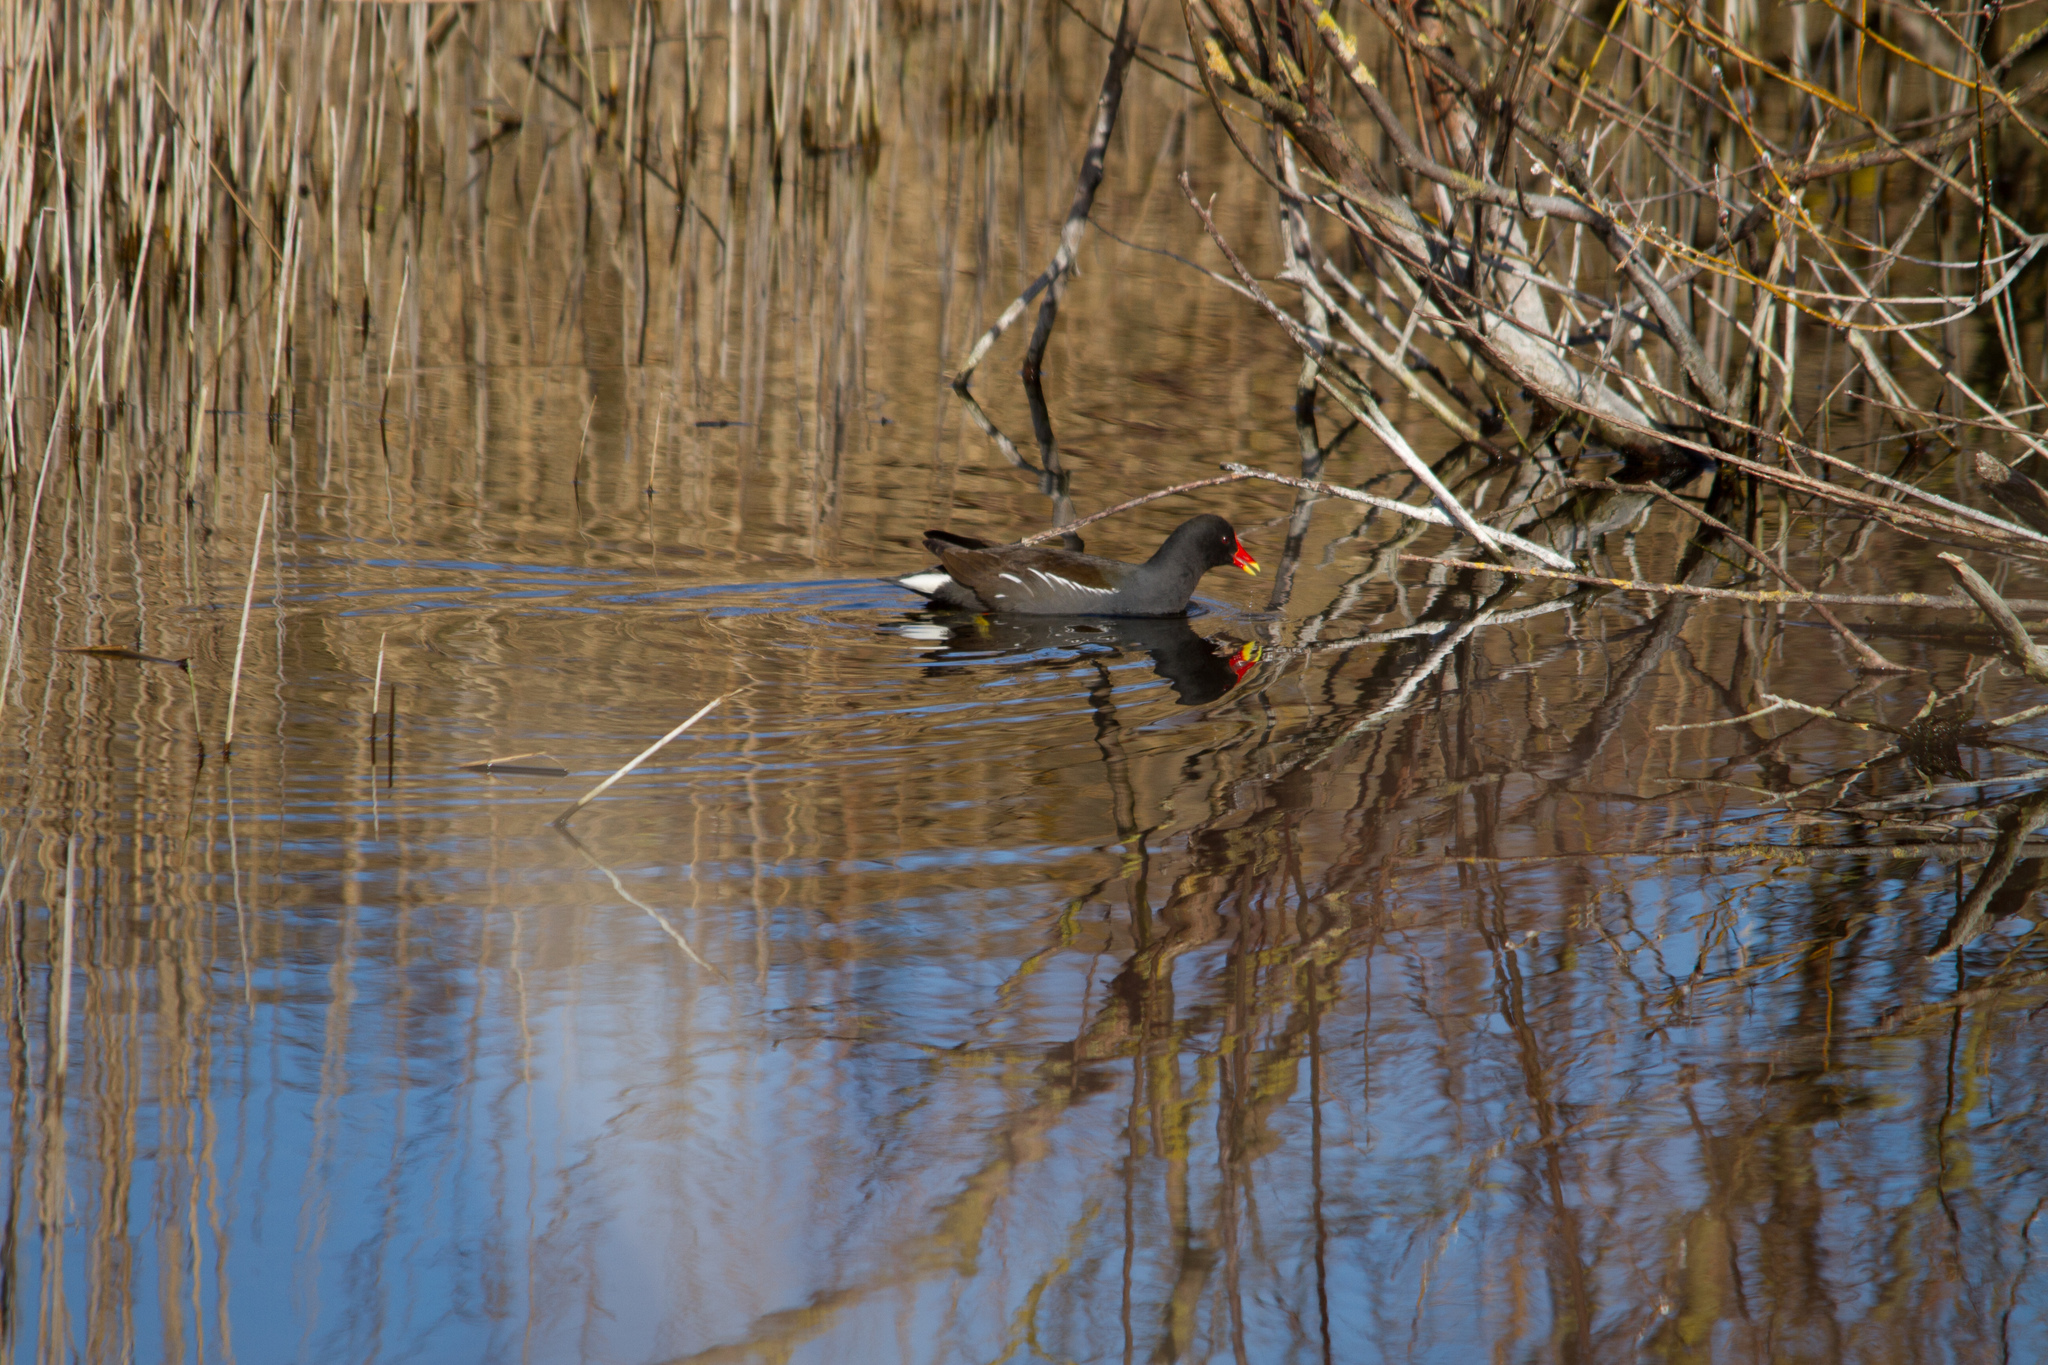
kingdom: Animalia
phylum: Chordata
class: Aves
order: Gruiformes
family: Rallidae
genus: Gallinula
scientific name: Gallinula chloropus
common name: Common moorhen
